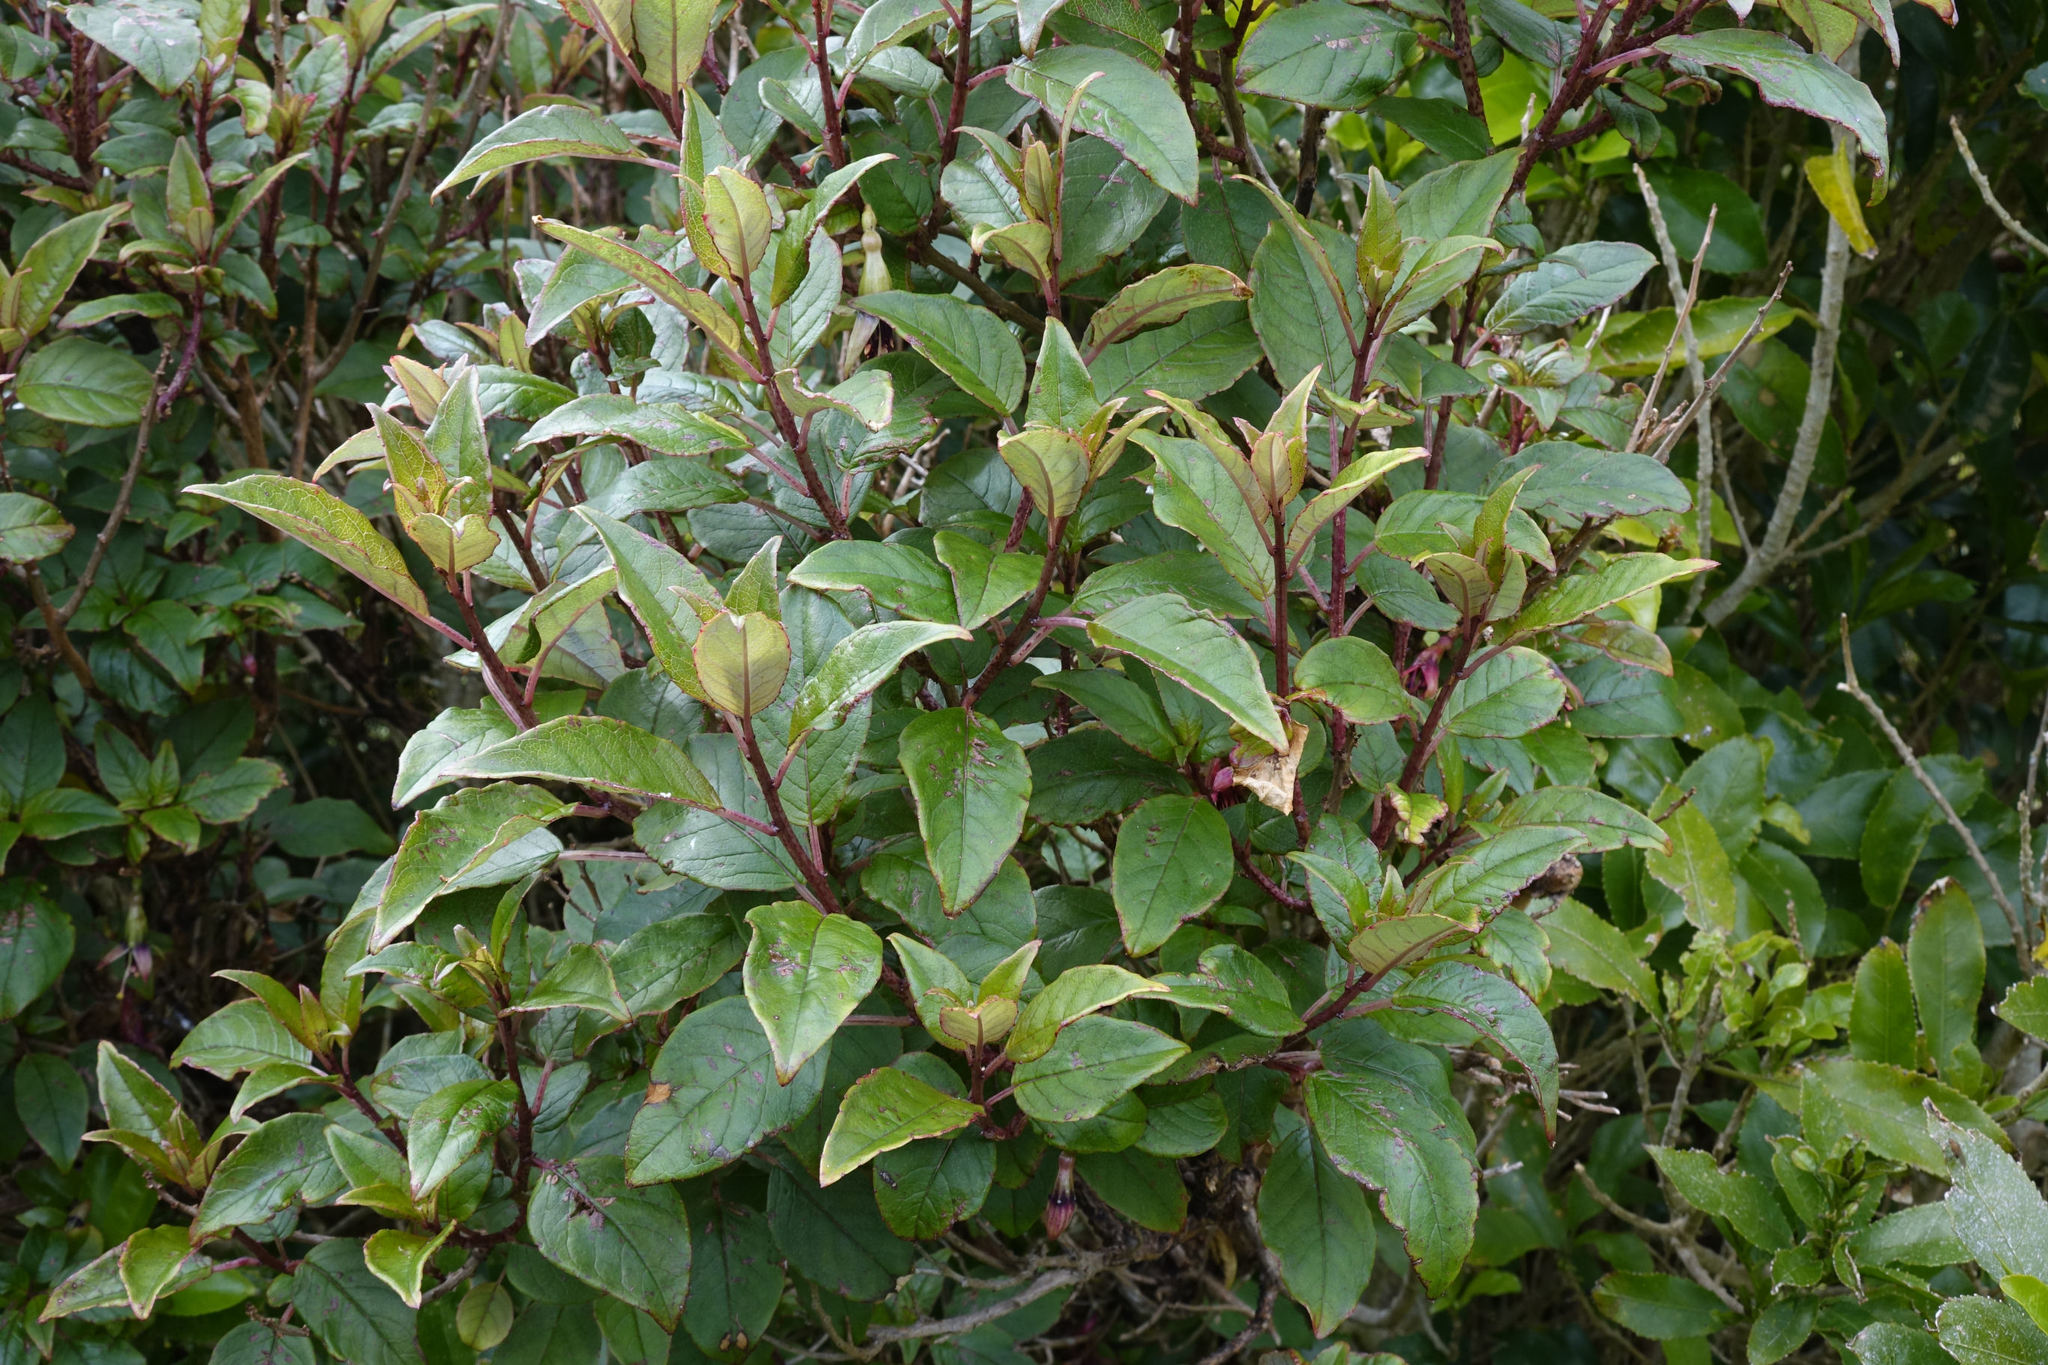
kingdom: Plantae
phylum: Tracheophyta
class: Magnoliopsida
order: Myrtales
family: Onagraceae
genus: Fuchsia
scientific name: Fuchsia excorticata
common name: Tree fuchsia
